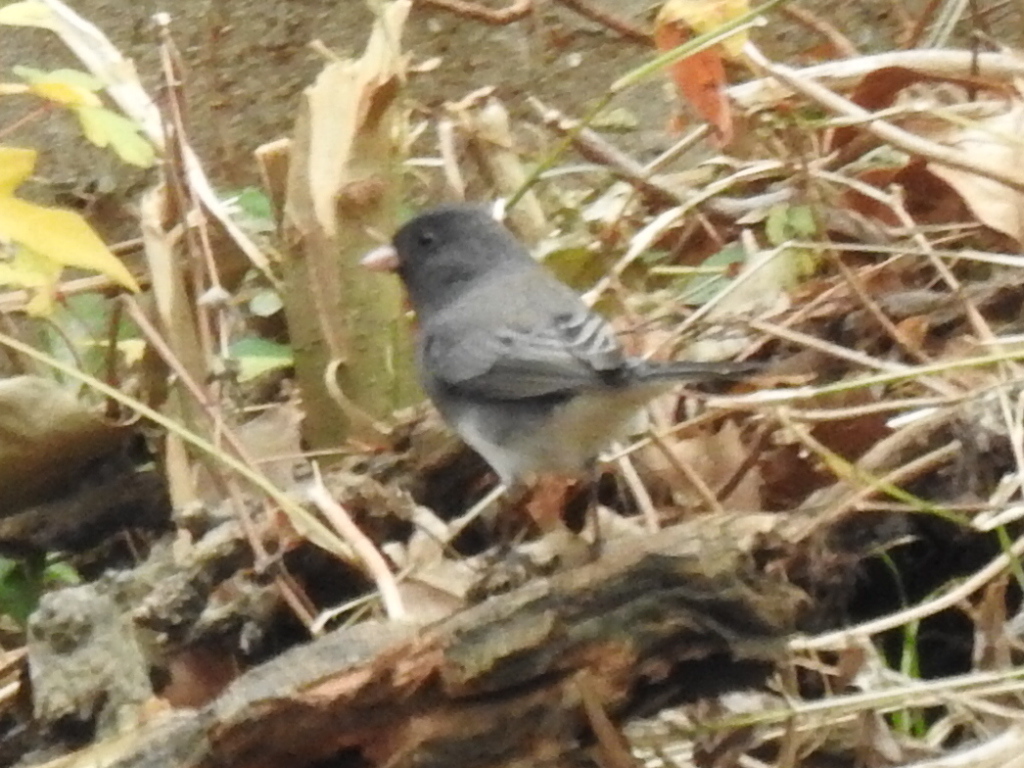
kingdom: Animalia
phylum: Chordata
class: Aves
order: Passeriformes
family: Passerellidae
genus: Junco
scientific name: Junco hyemalis
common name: Dark-eyed junco
